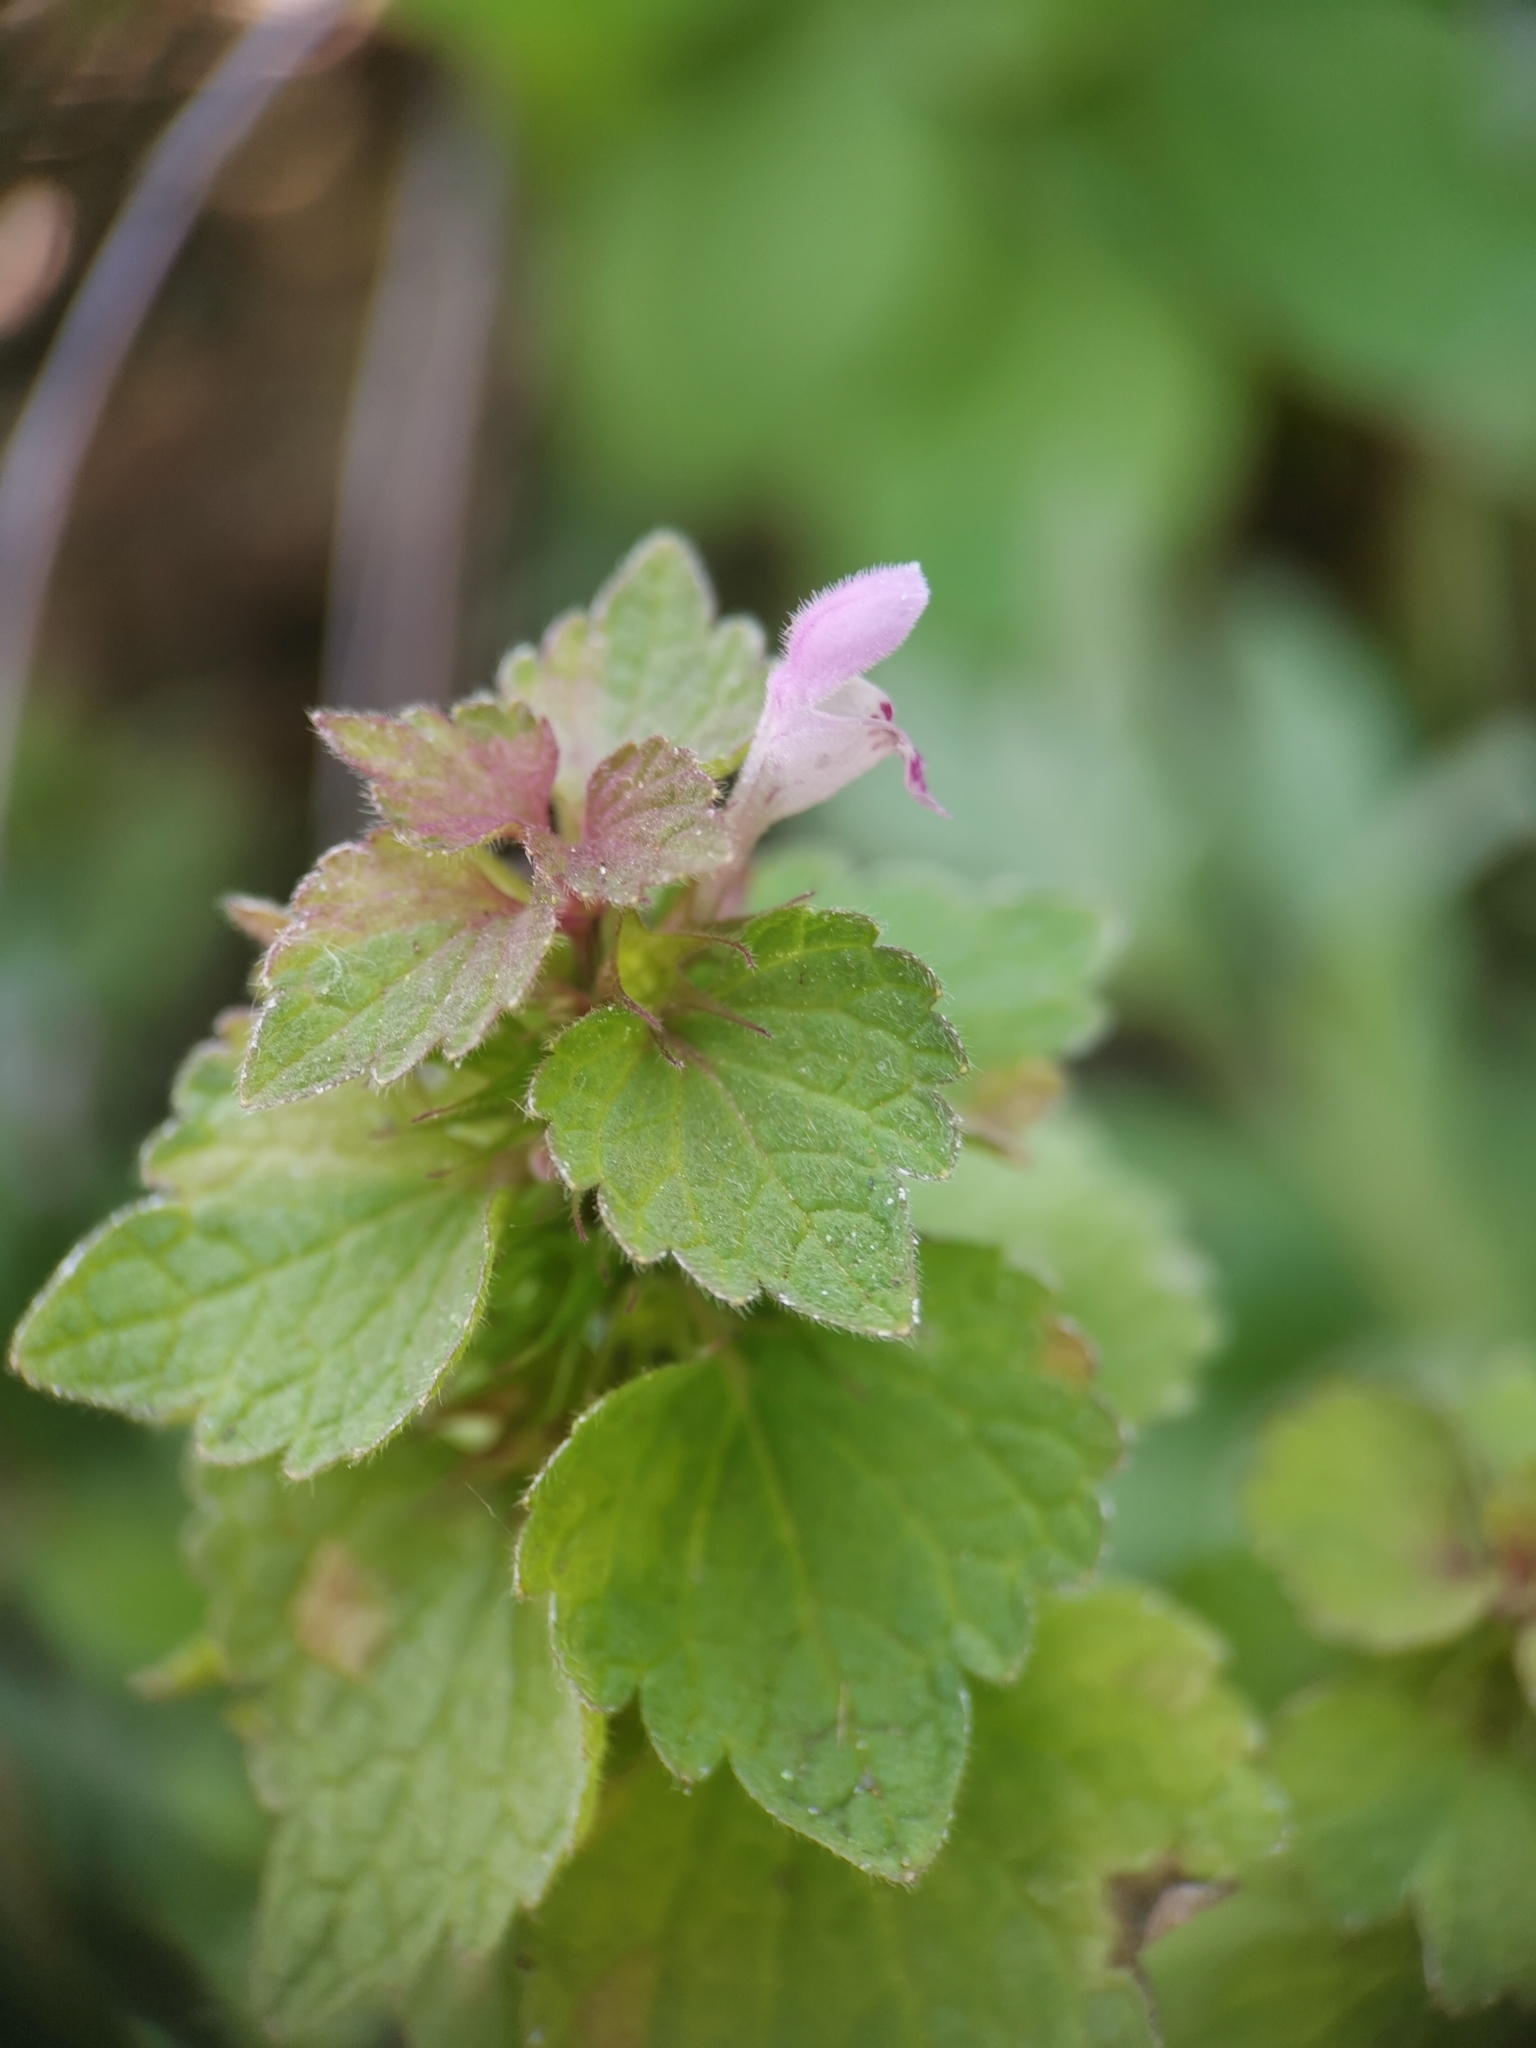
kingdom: Plantae
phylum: Tracheophyta
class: Magnoliopsida
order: Lamiales
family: Lamiaceae
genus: Lamium
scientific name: Lamium purpureum
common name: Red dead-nettle
